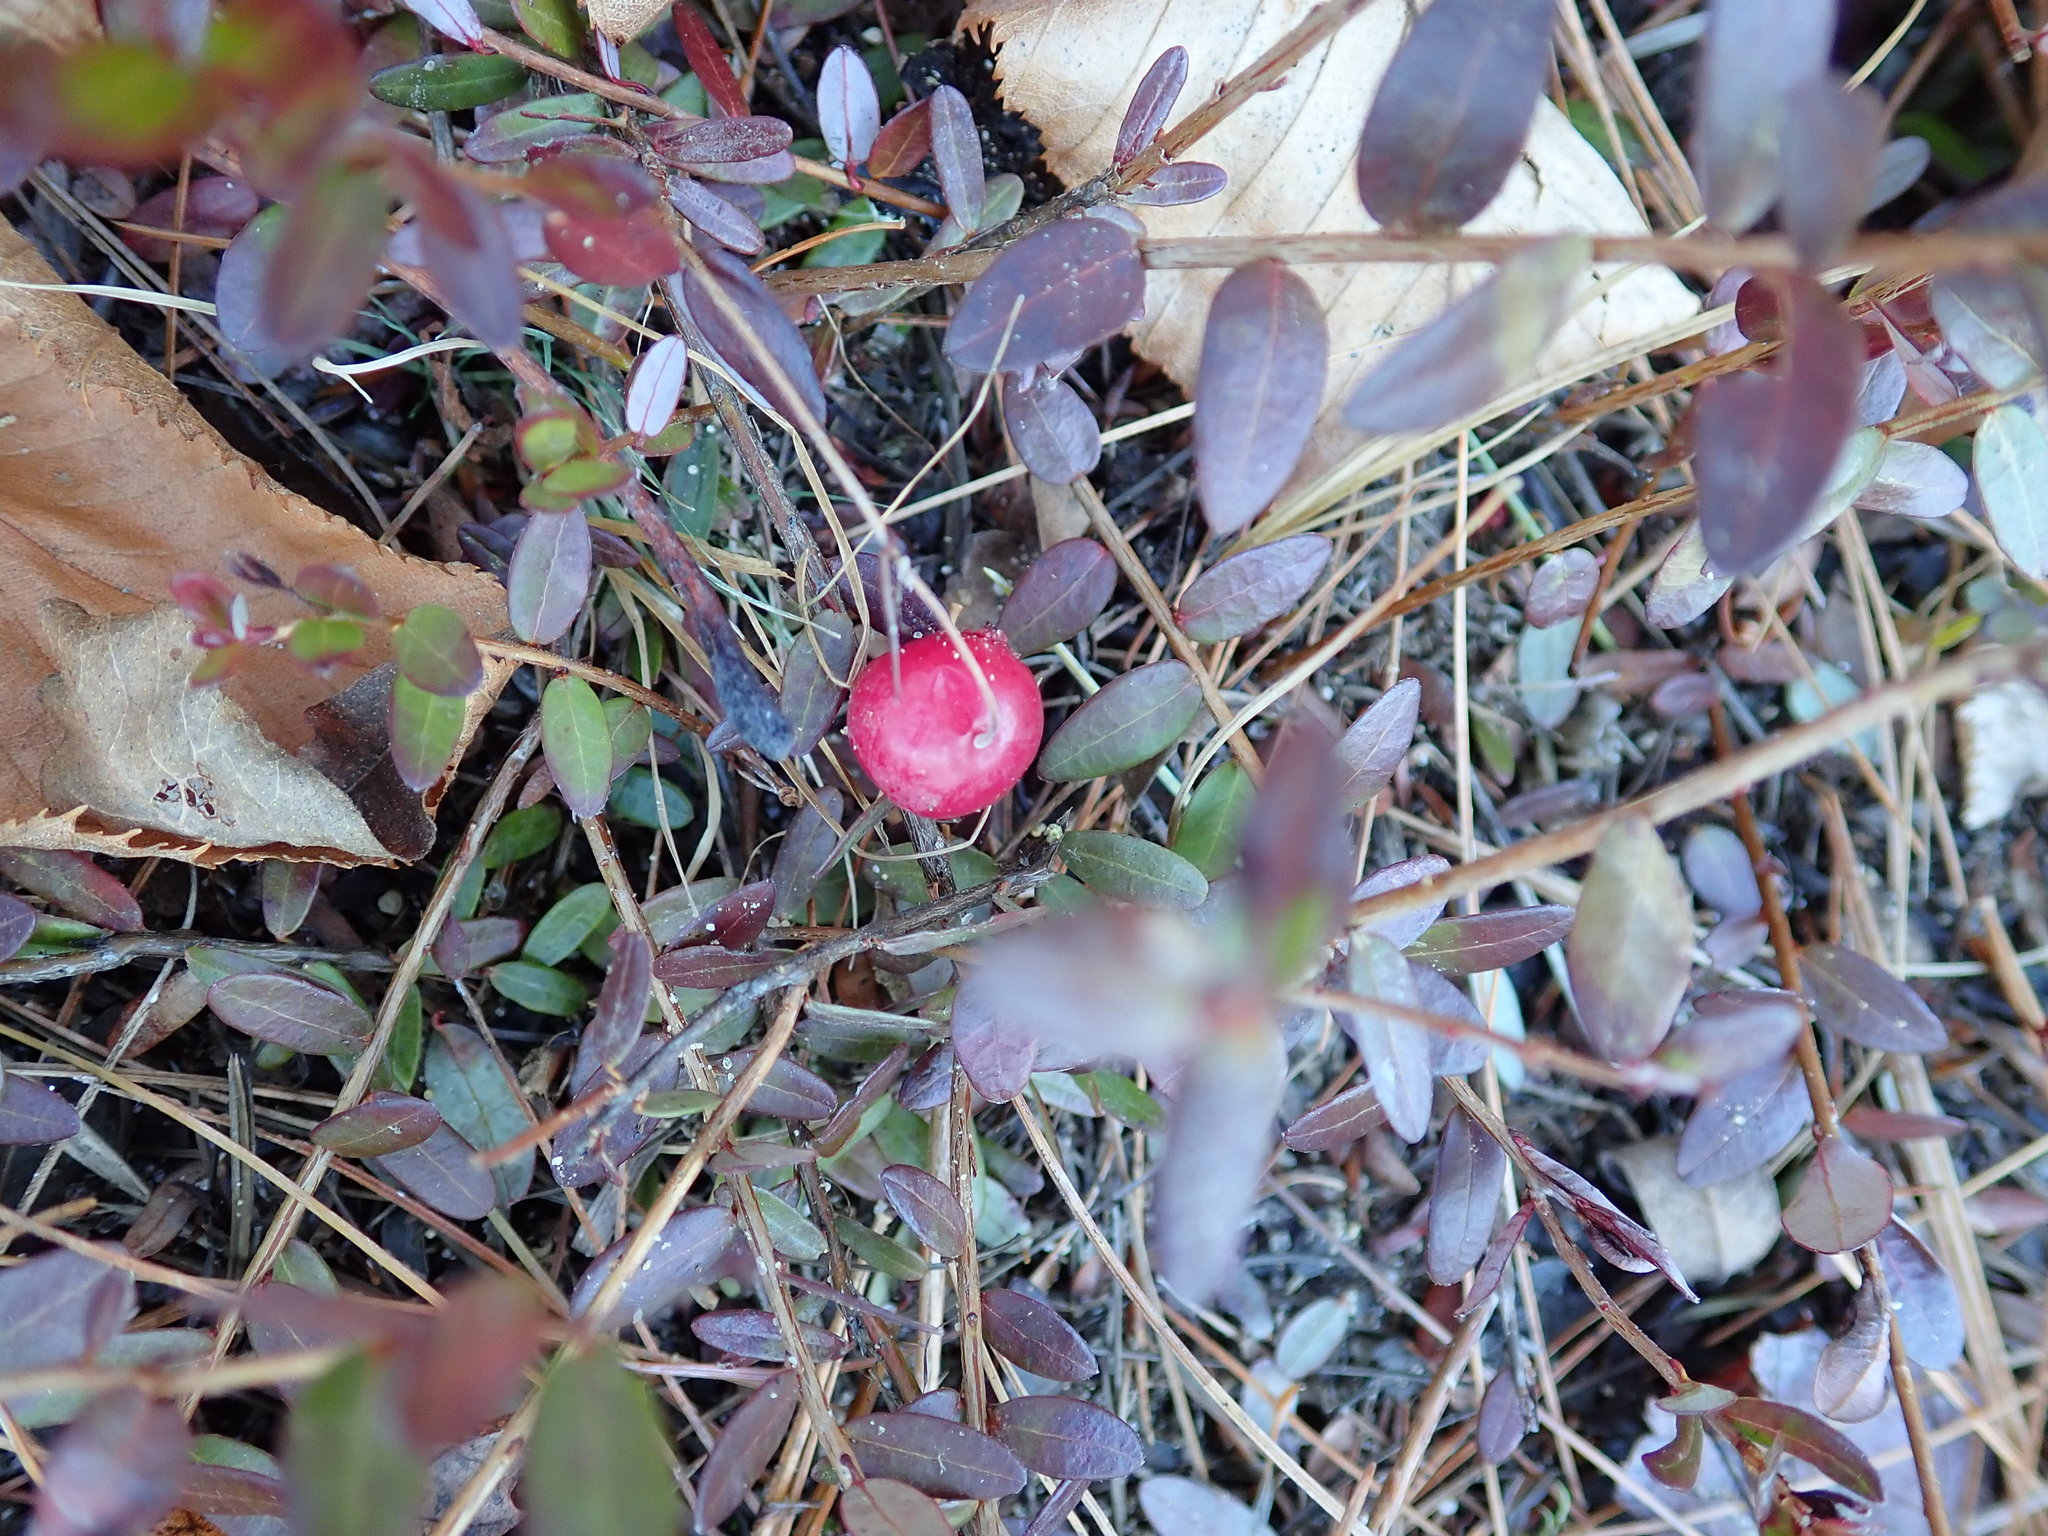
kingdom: Plantae
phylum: Tracheophyta
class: Magnoliopsida
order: Ericales
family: Ericaceae
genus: Vaccinium
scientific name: Vaccinium macrocarpon
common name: American cranberry
